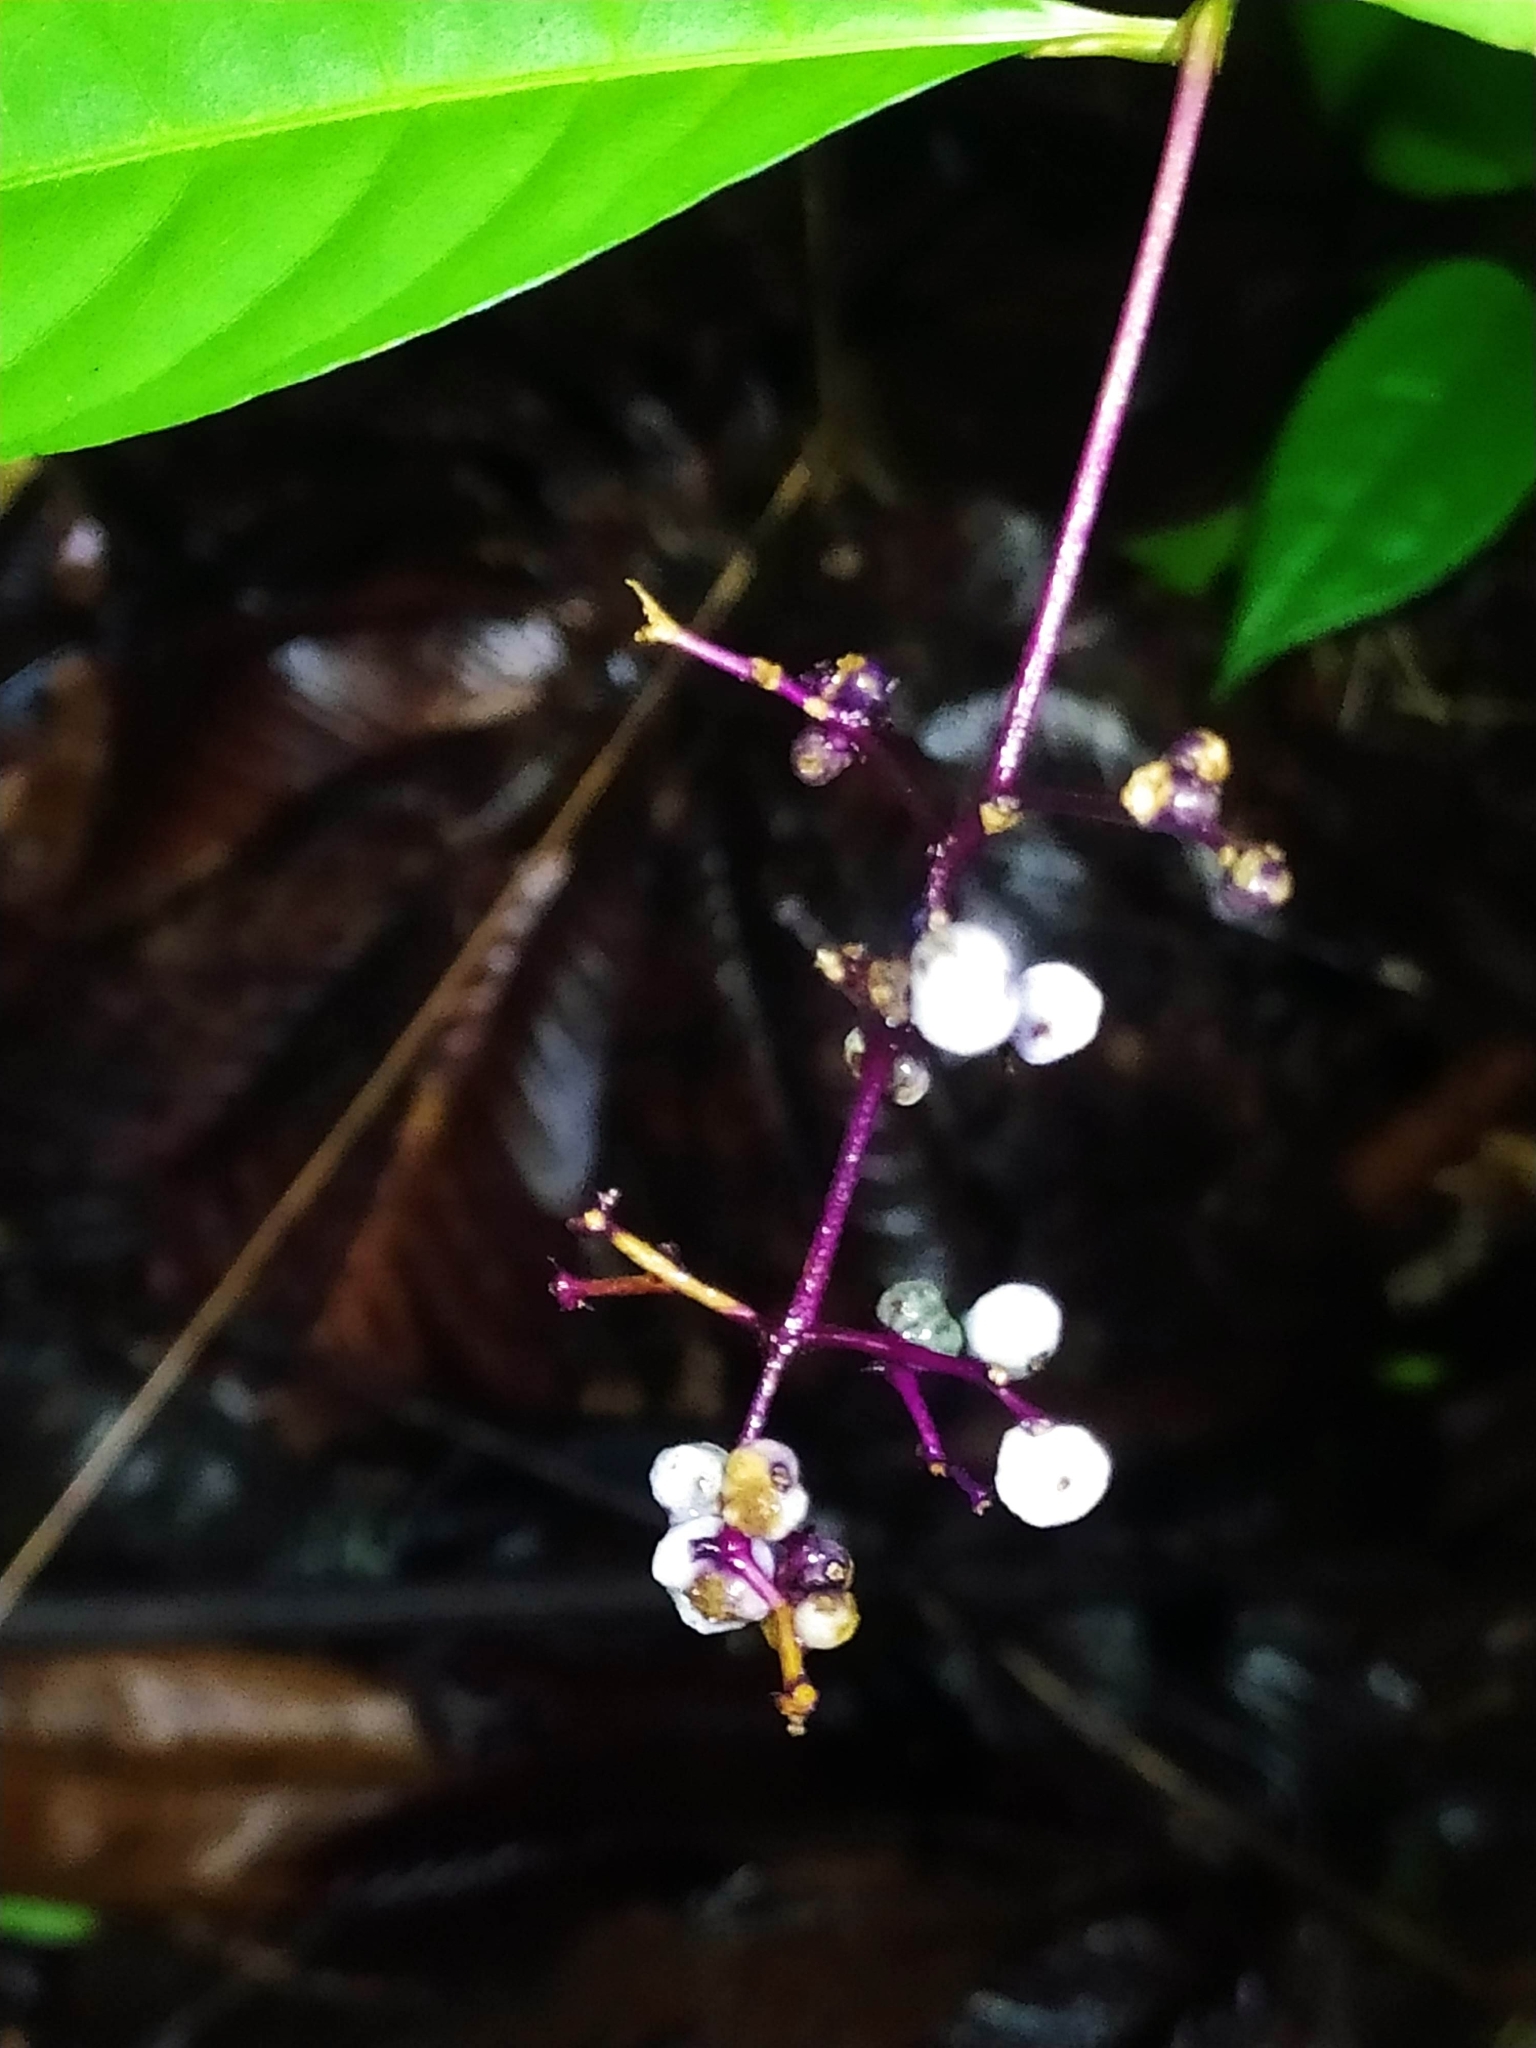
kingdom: Plantae
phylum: Tracheophyta
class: Magnoliopsida
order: Gentianales
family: Rubiaceae
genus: Palicourea
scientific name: Palicourea deflexa
